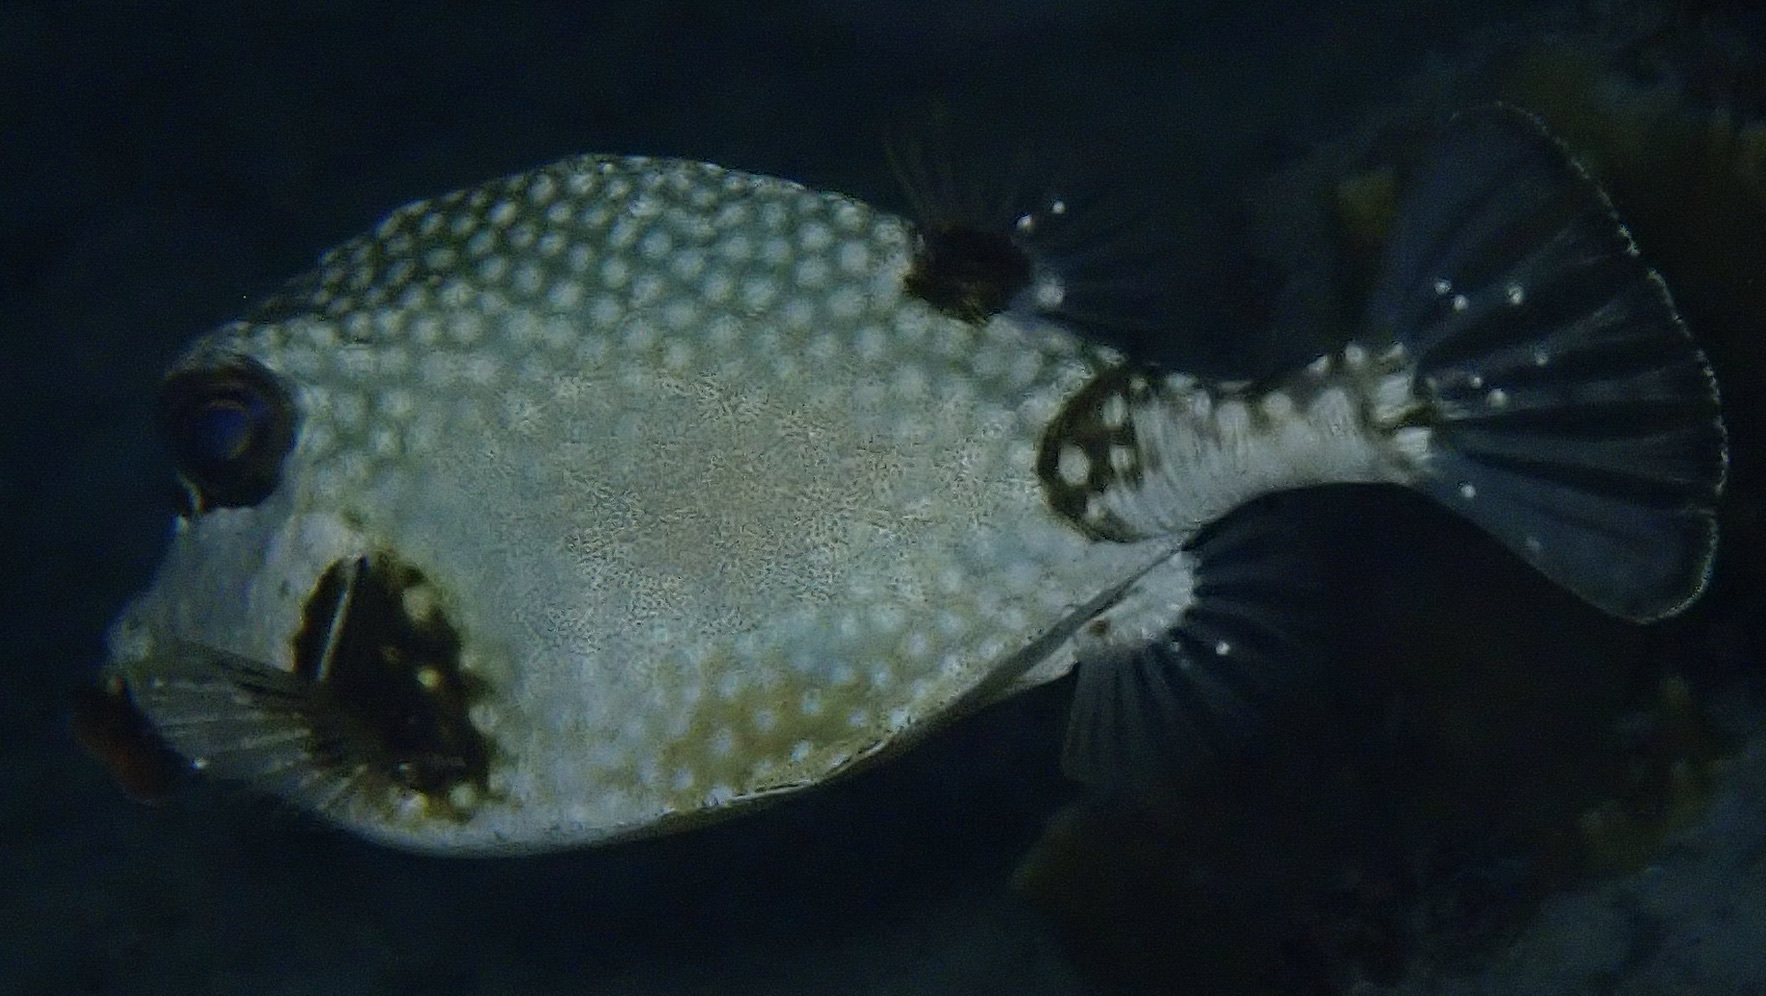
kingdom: Animalia
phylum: Chordata
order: Tetraodontiformes
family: Ostraciidae
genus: Lactophrys
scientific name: Lactophrys triqueter
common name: Smooth trunkfish
